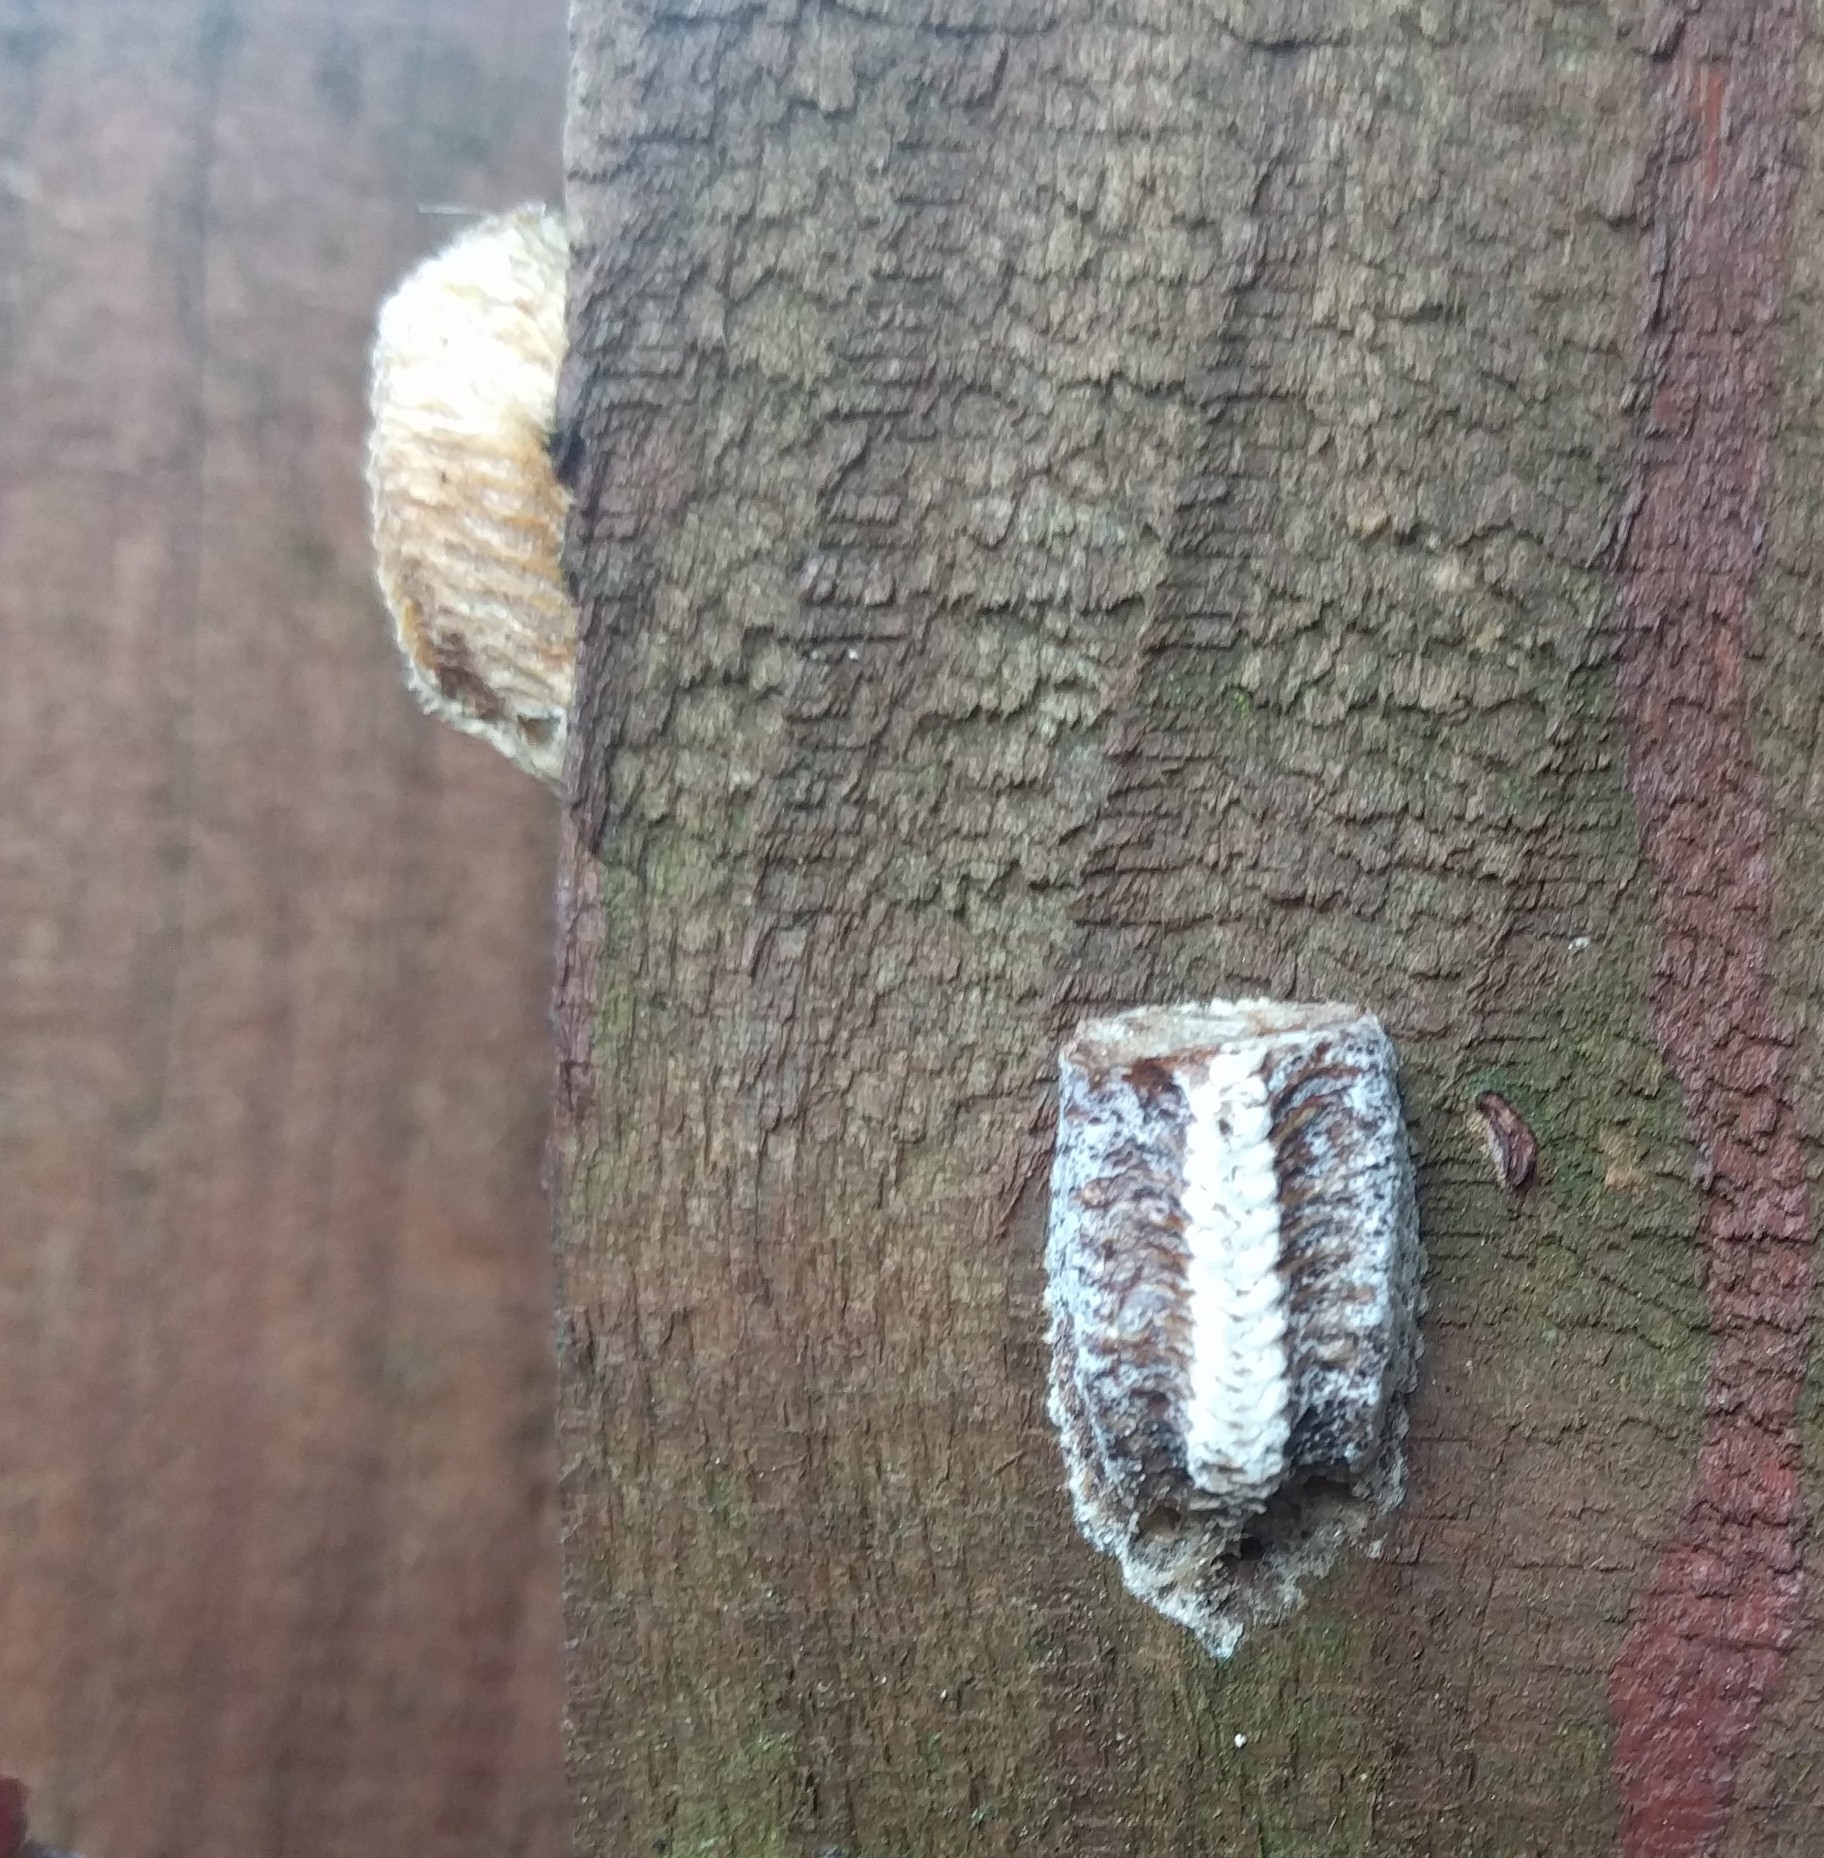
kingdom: Animalia
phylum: Arthropoda
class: Insecta
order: Mantodea
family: Mantidae
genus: Stagmomantis
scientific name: Stagmomantis carolina
